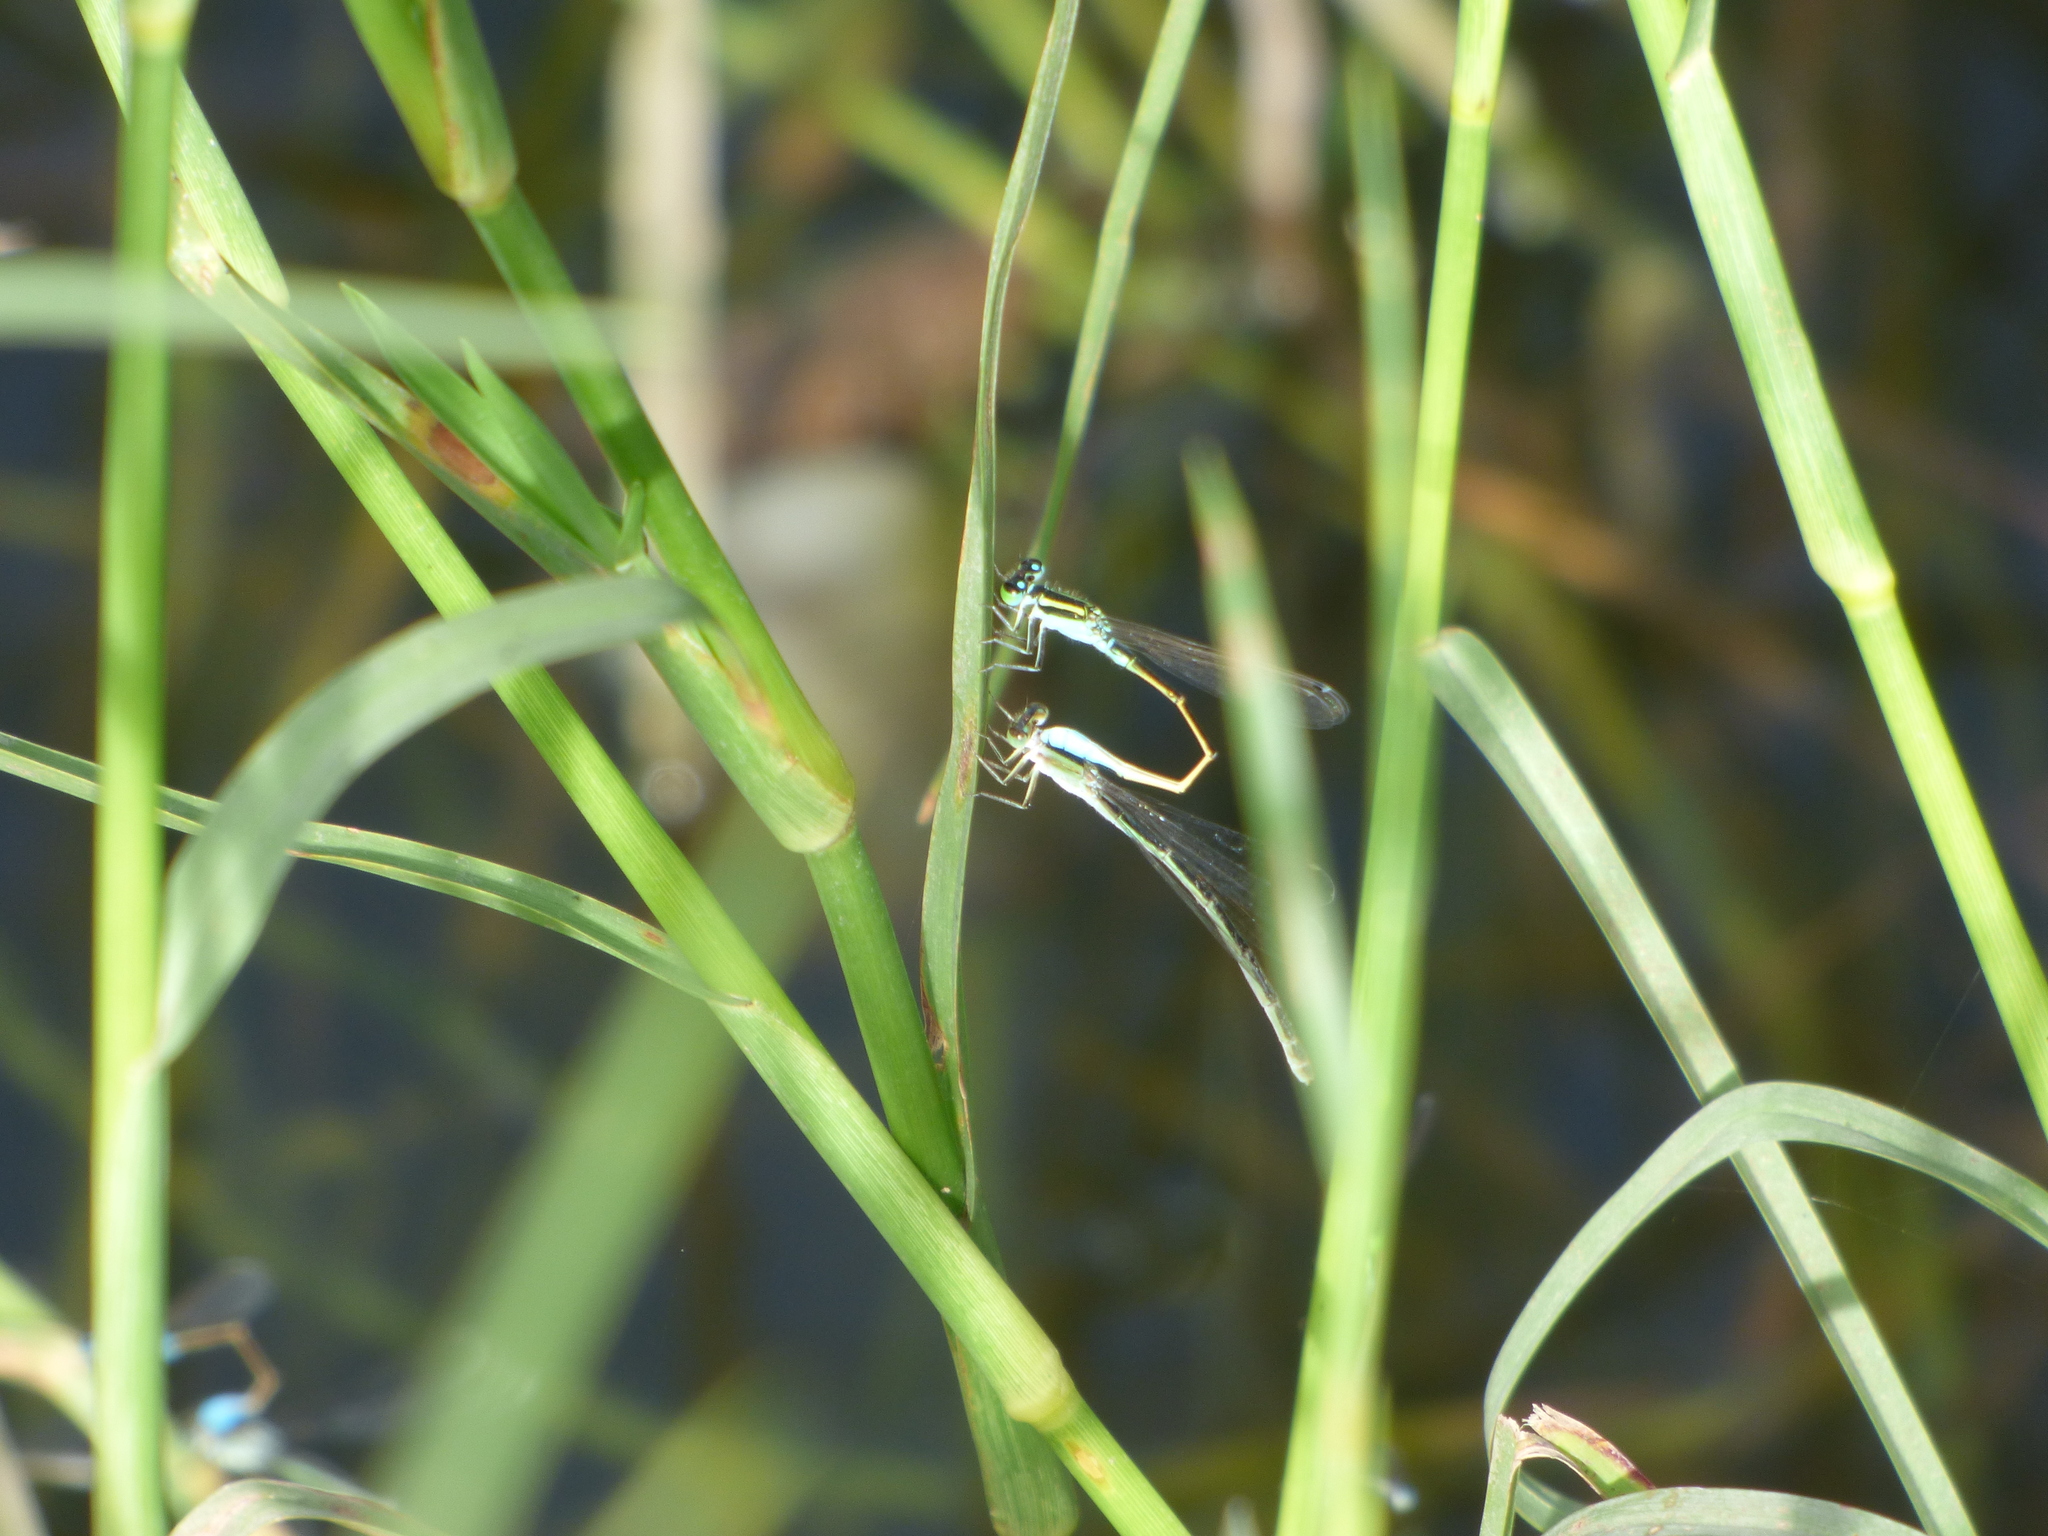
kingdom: Animalia
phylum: Arthropoda
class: Insecta
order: Odonata
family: Coenagrionidae
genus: Ischnura
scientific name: Ischnura fluviatilis
